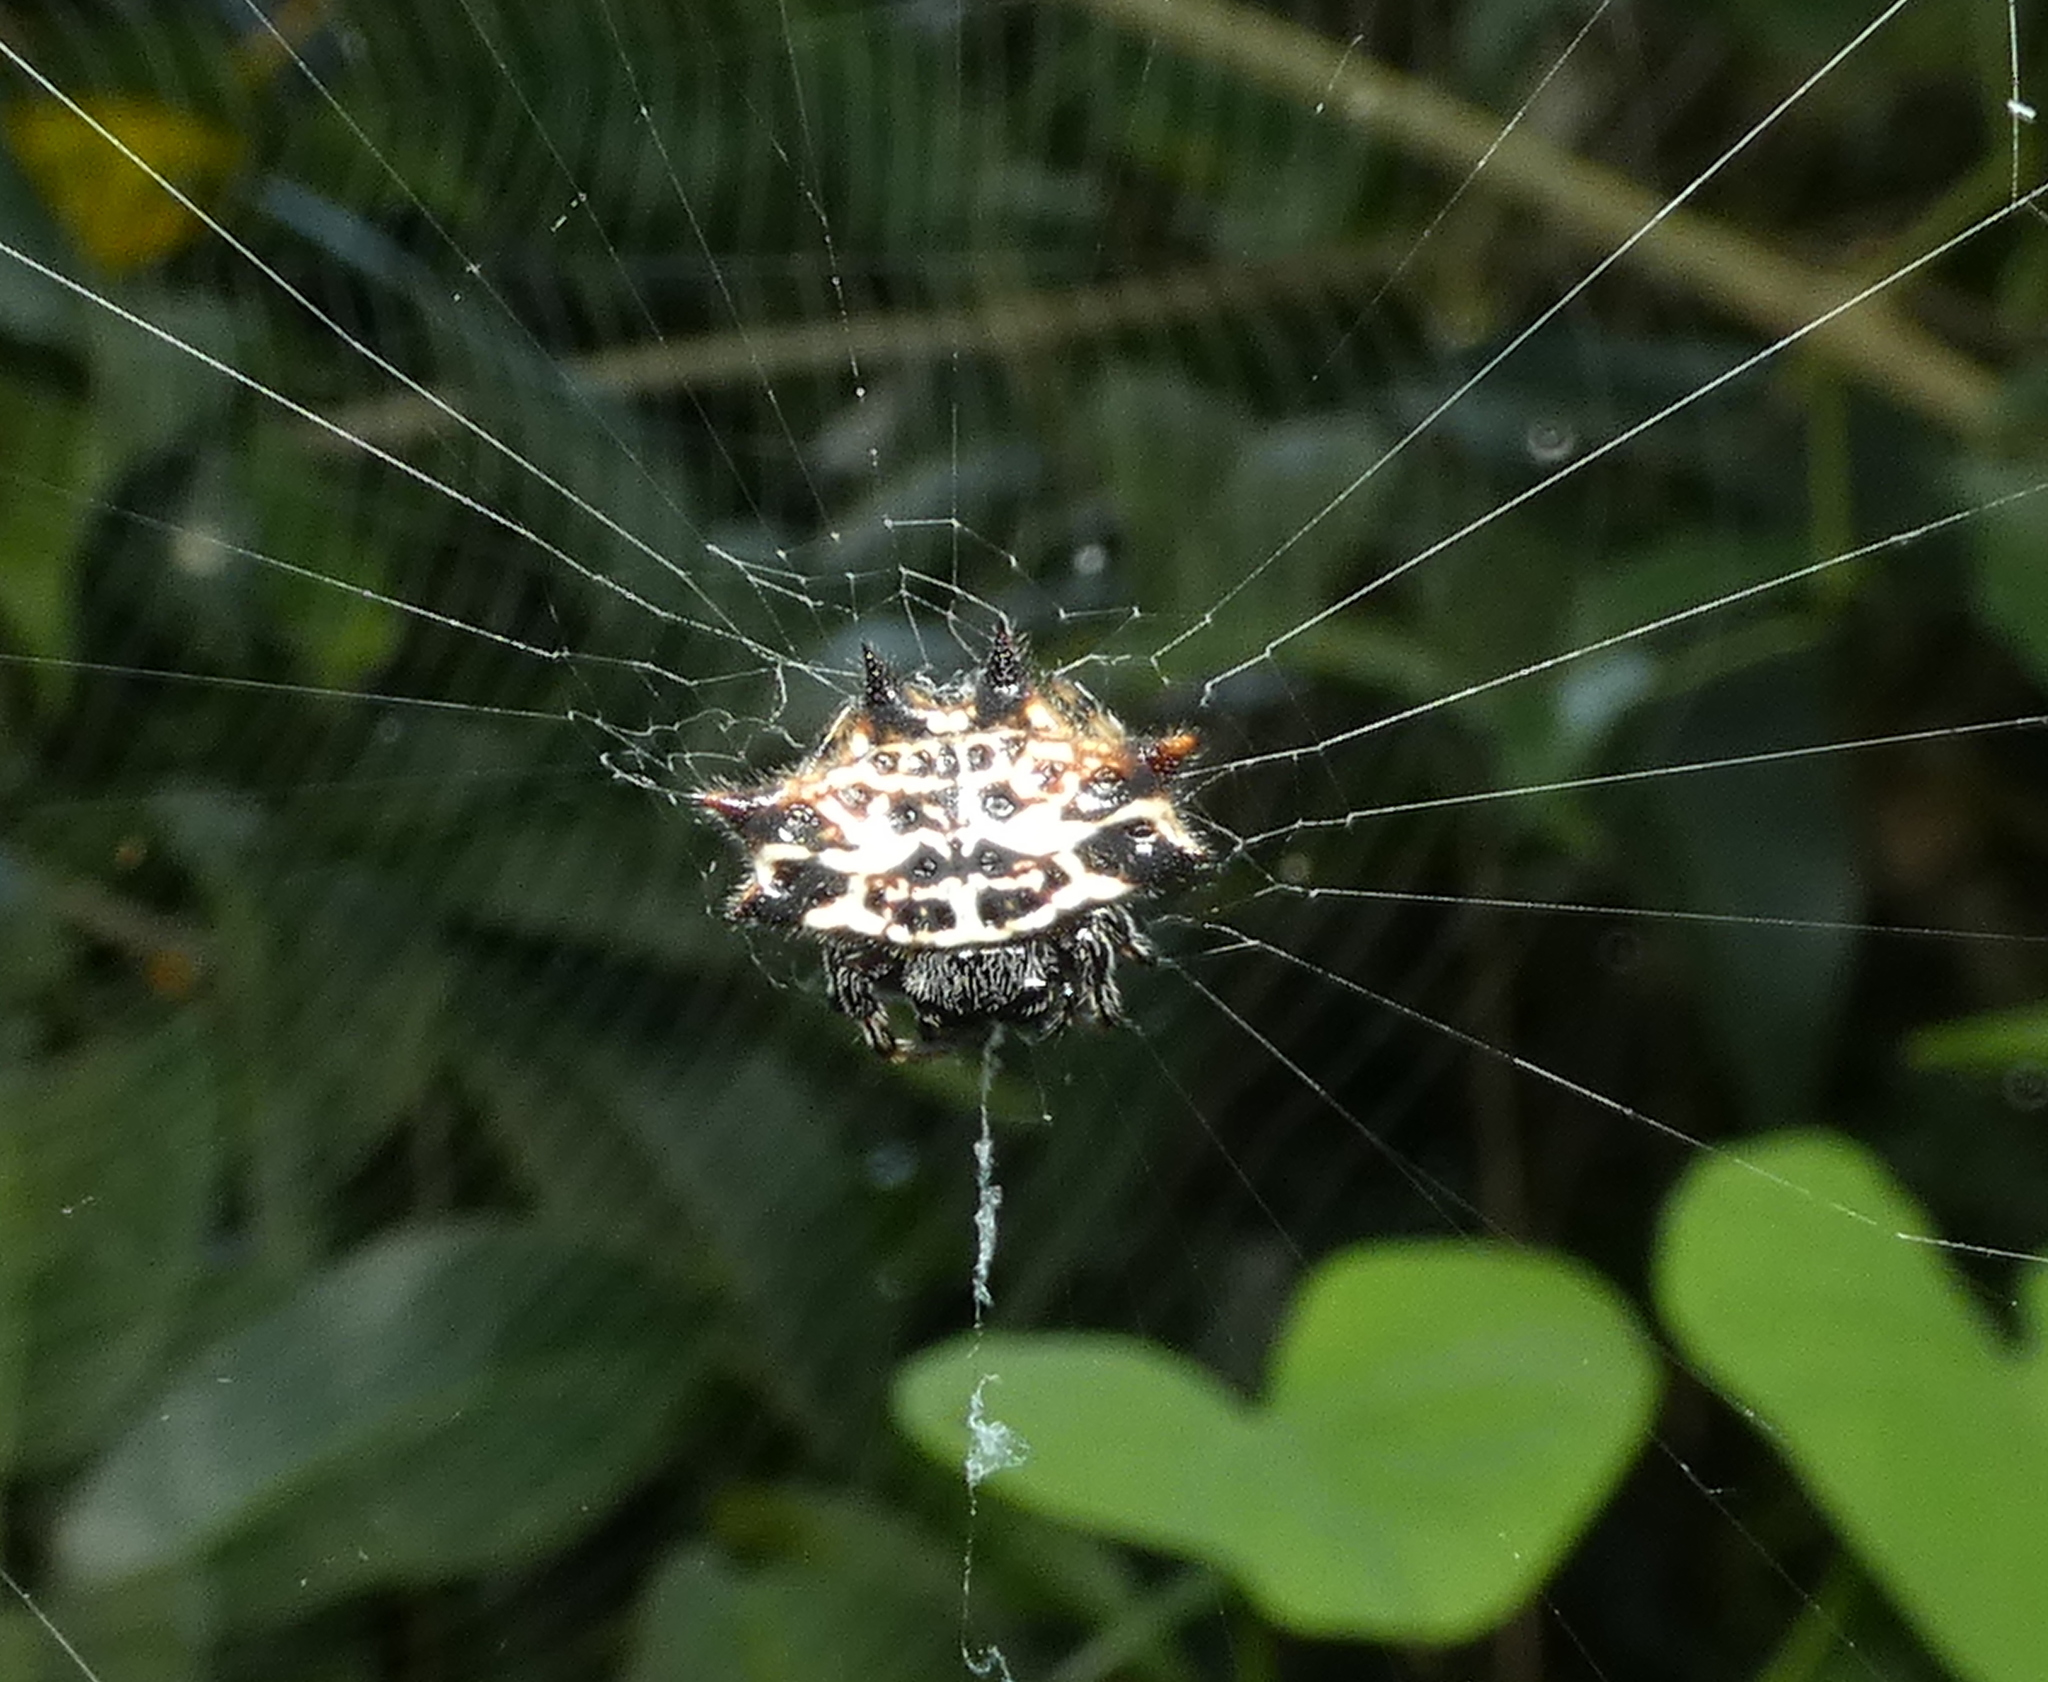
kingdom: Animalia
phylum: Arthropoda
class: Arachnida
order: Araneae
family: Araneidae
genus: Gasteracantha
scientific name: Gasteracantha cancriformis
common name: Orb weavers
